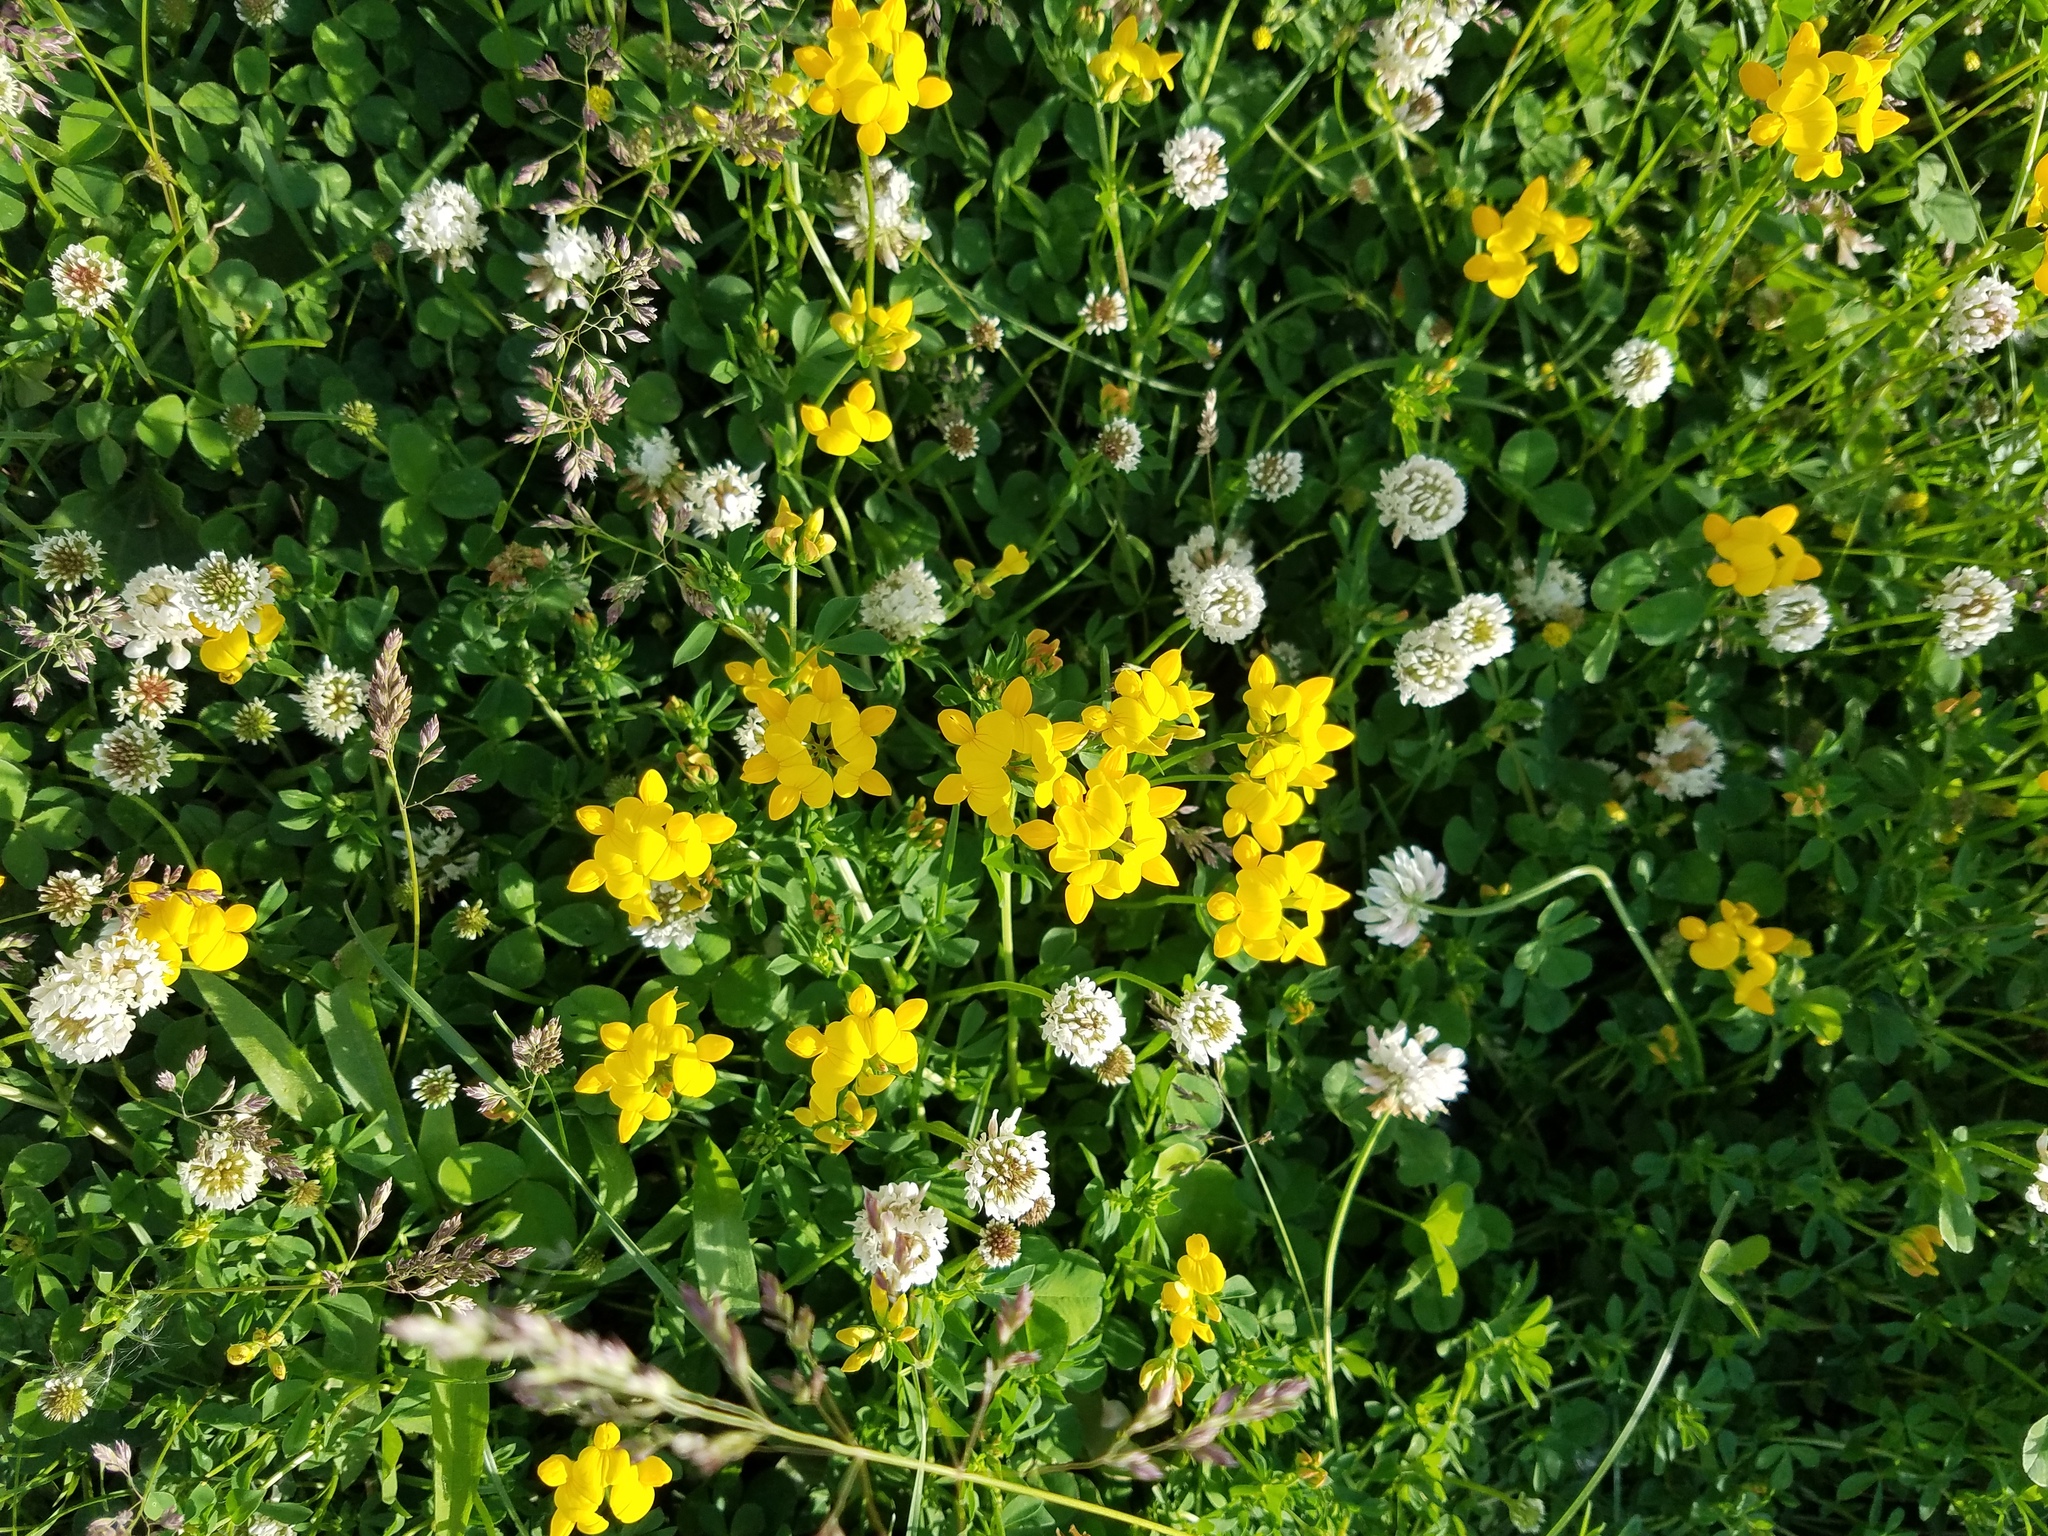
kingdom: Plantae
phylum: Tracheophyta
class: Magnoliopsida
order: Fabales
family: Fabaceae
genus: Lotus
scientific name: Lotus corniculatus
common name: Common bird's-foot-trefoil
